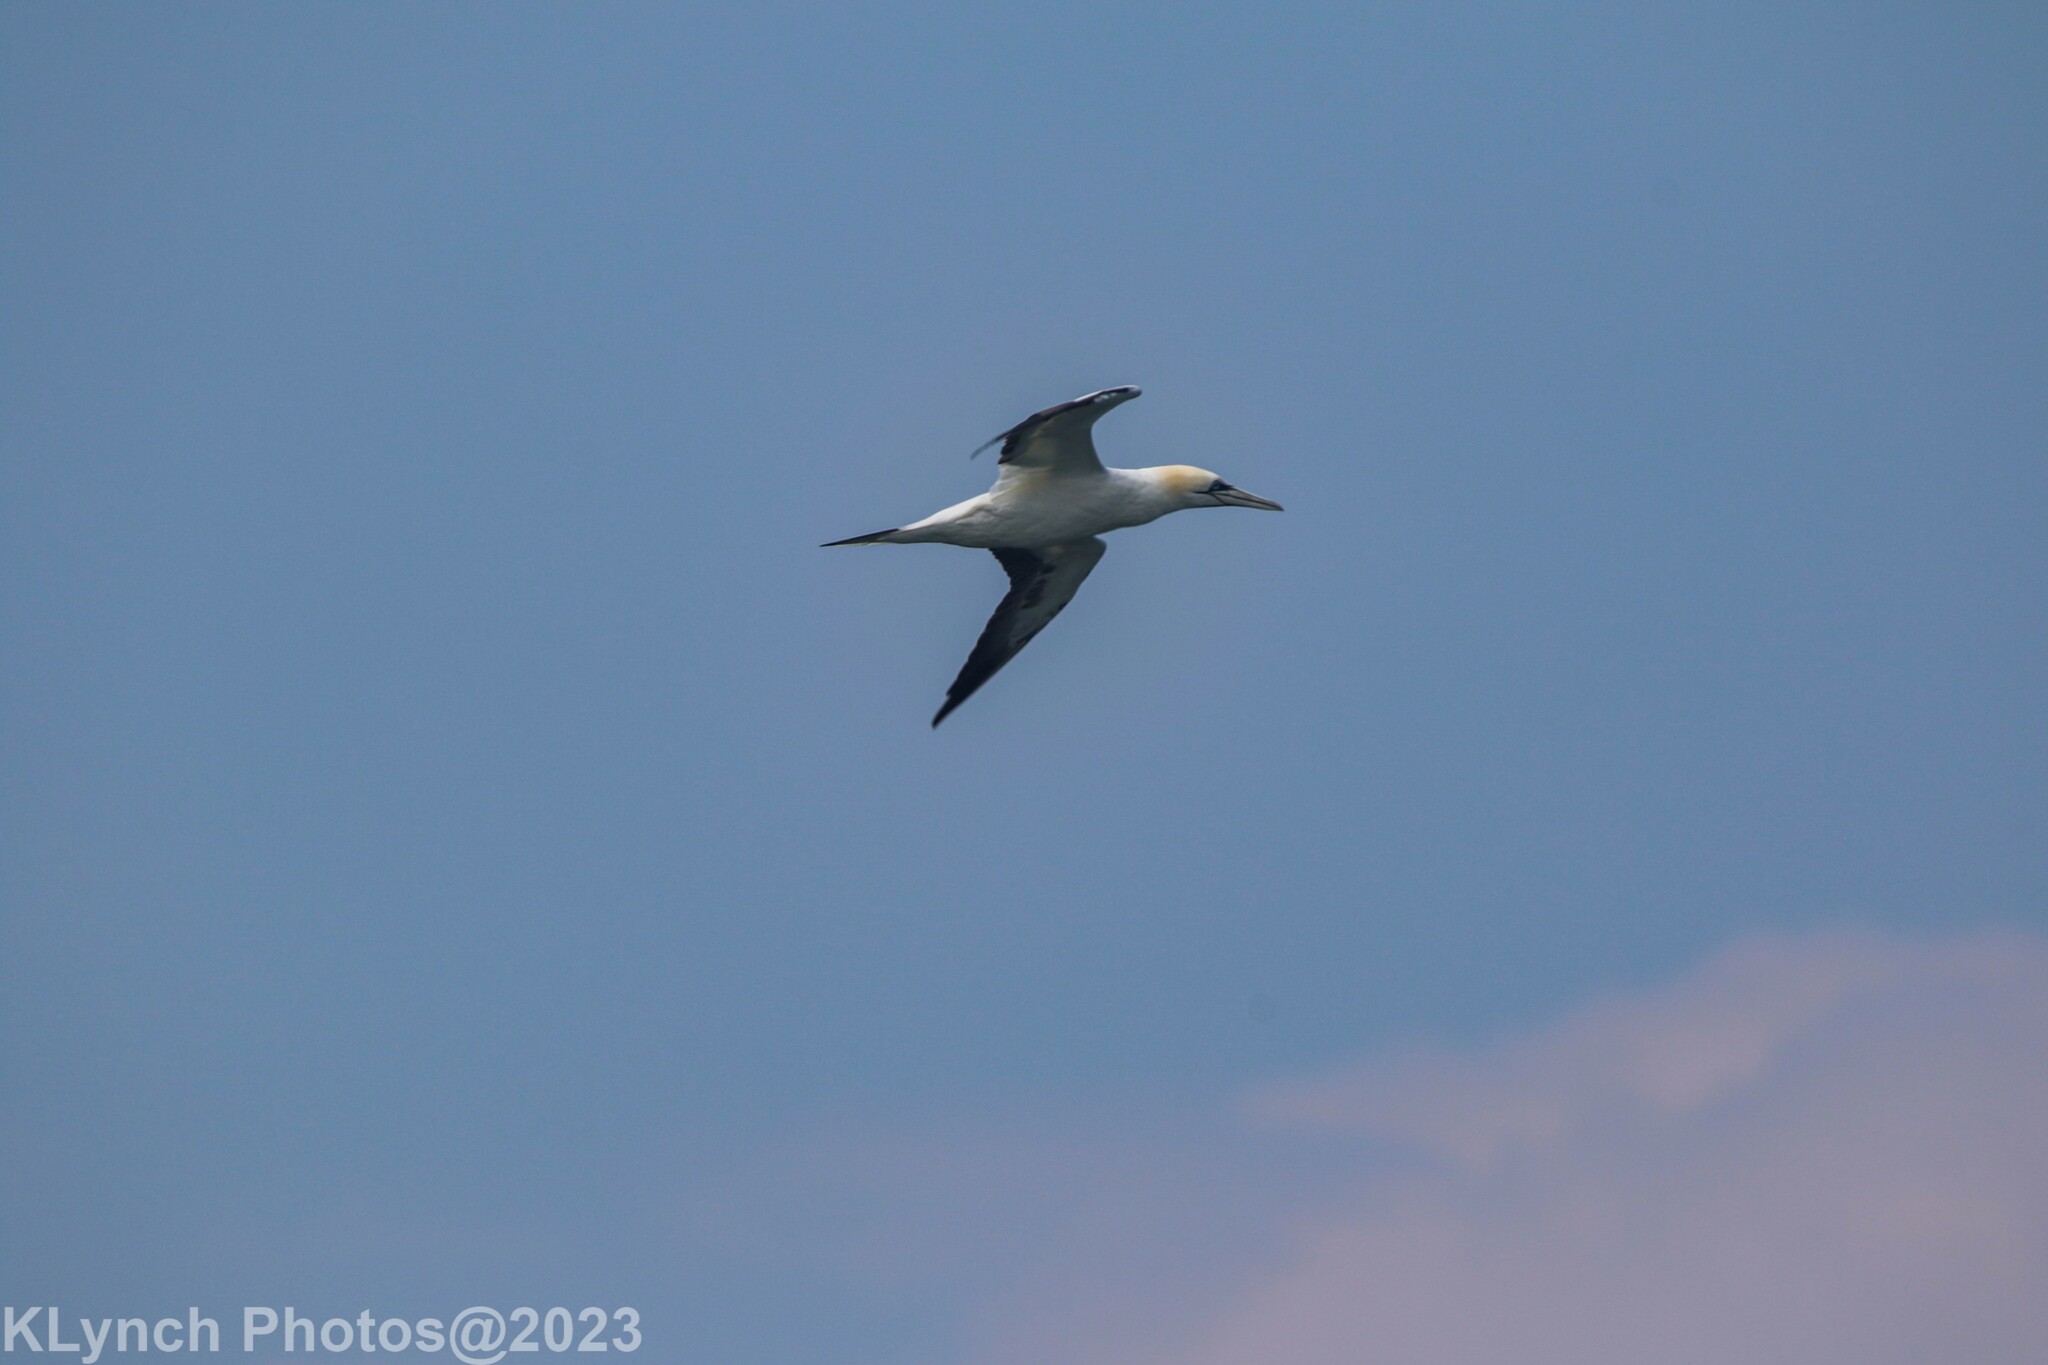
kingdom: Animalia
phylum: Chordata
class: Aves
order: Suliformes
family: Sulidae
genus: Morus
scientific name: Morus bassanus
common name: Northern gannet
